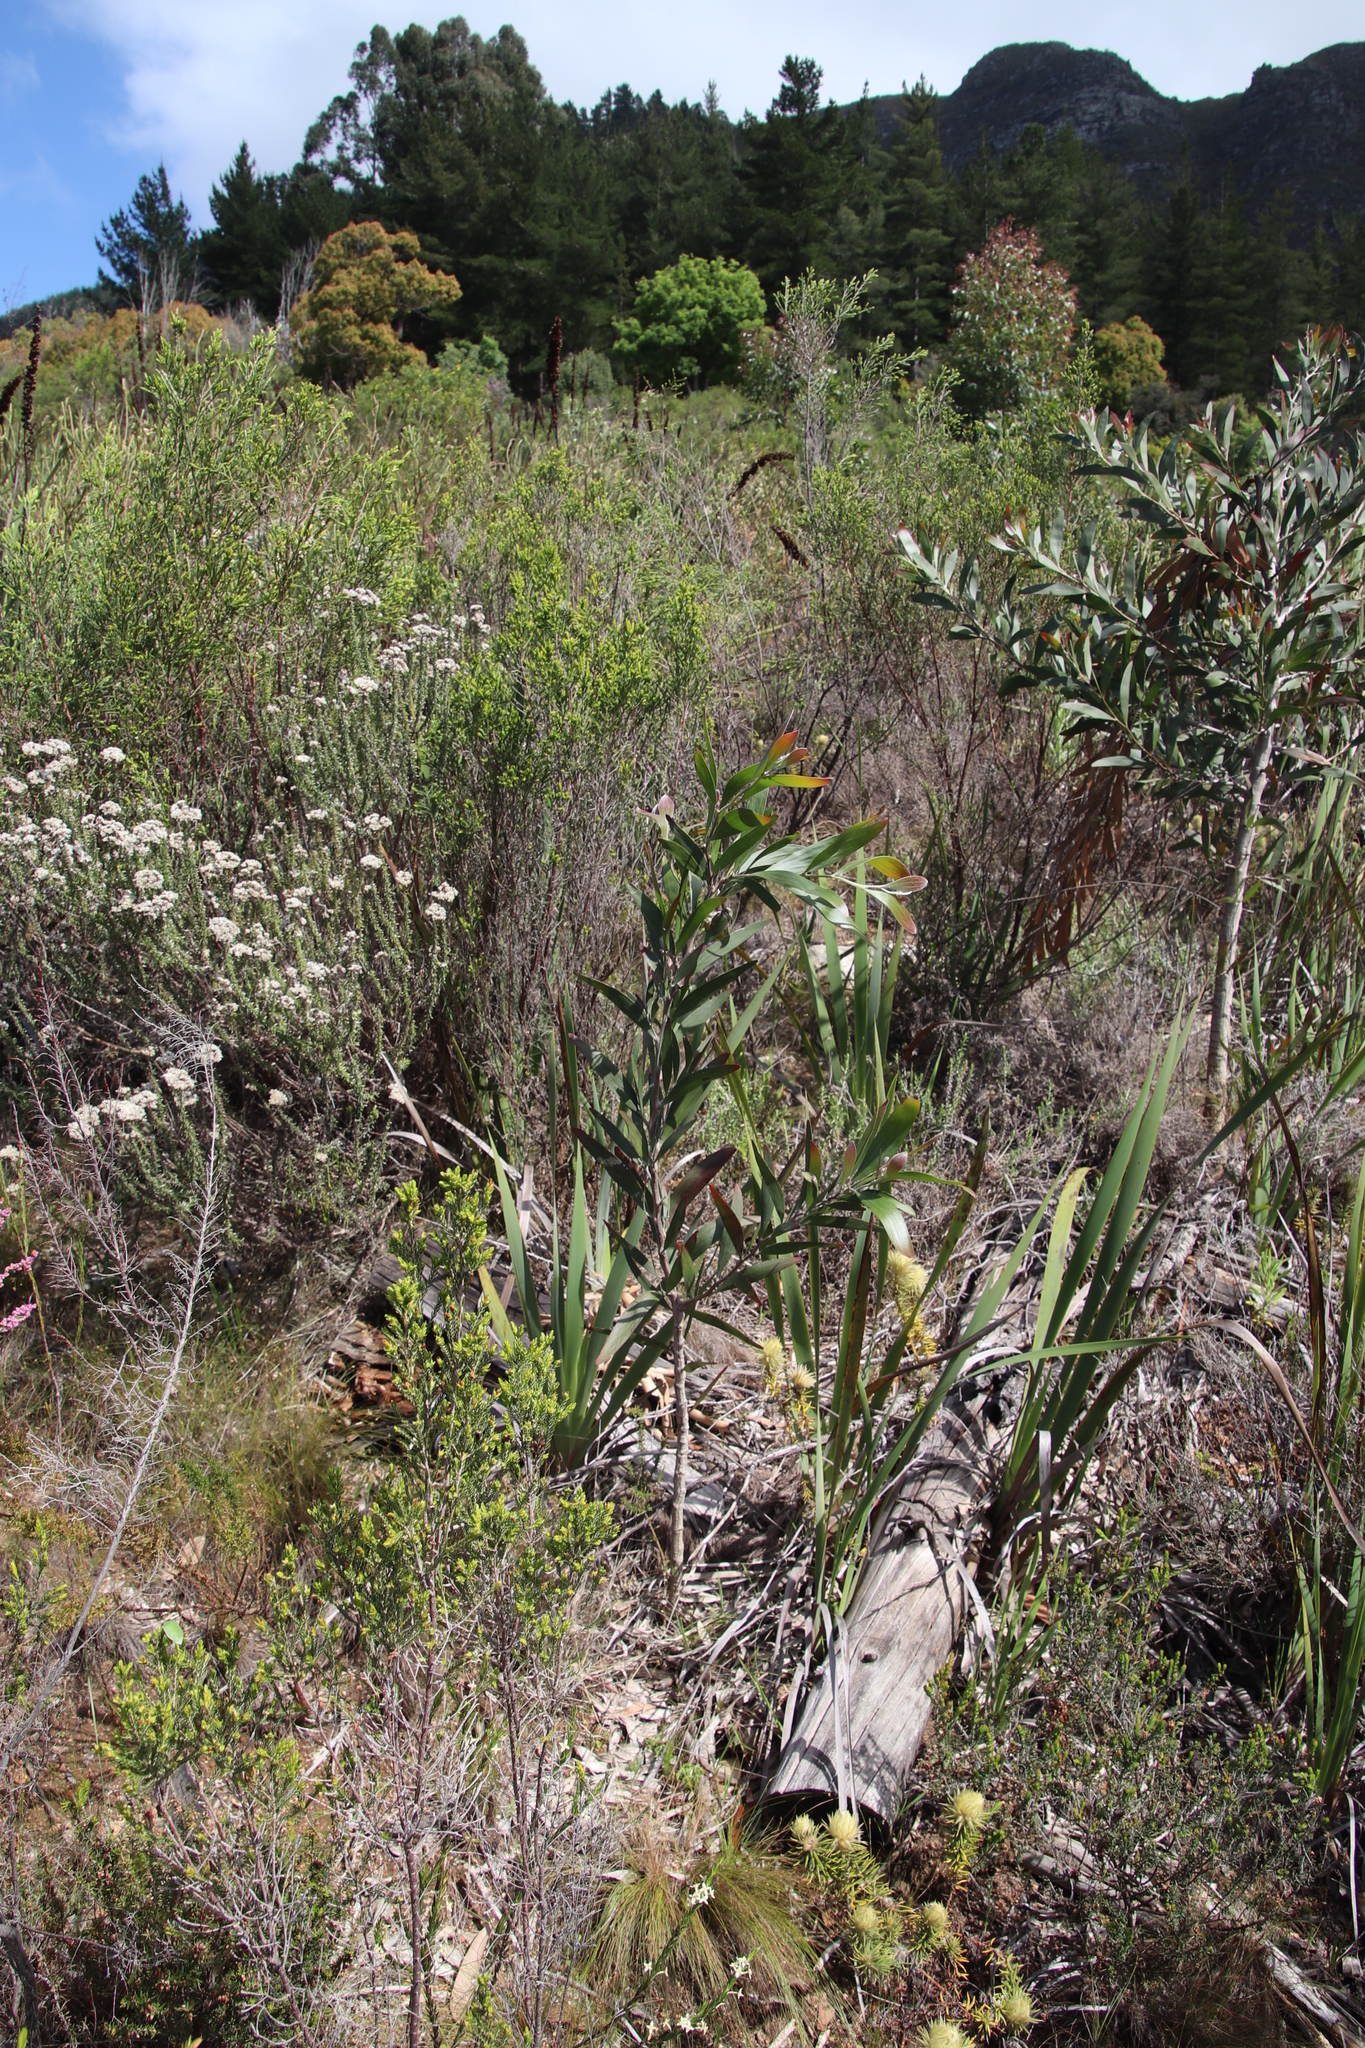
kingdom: Plantae
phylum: Tracheophyta
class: Magnoliopsida
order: Fabales
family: Fabaceae
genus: Acacia
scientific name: Acacia saligna
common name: Orange wattle
